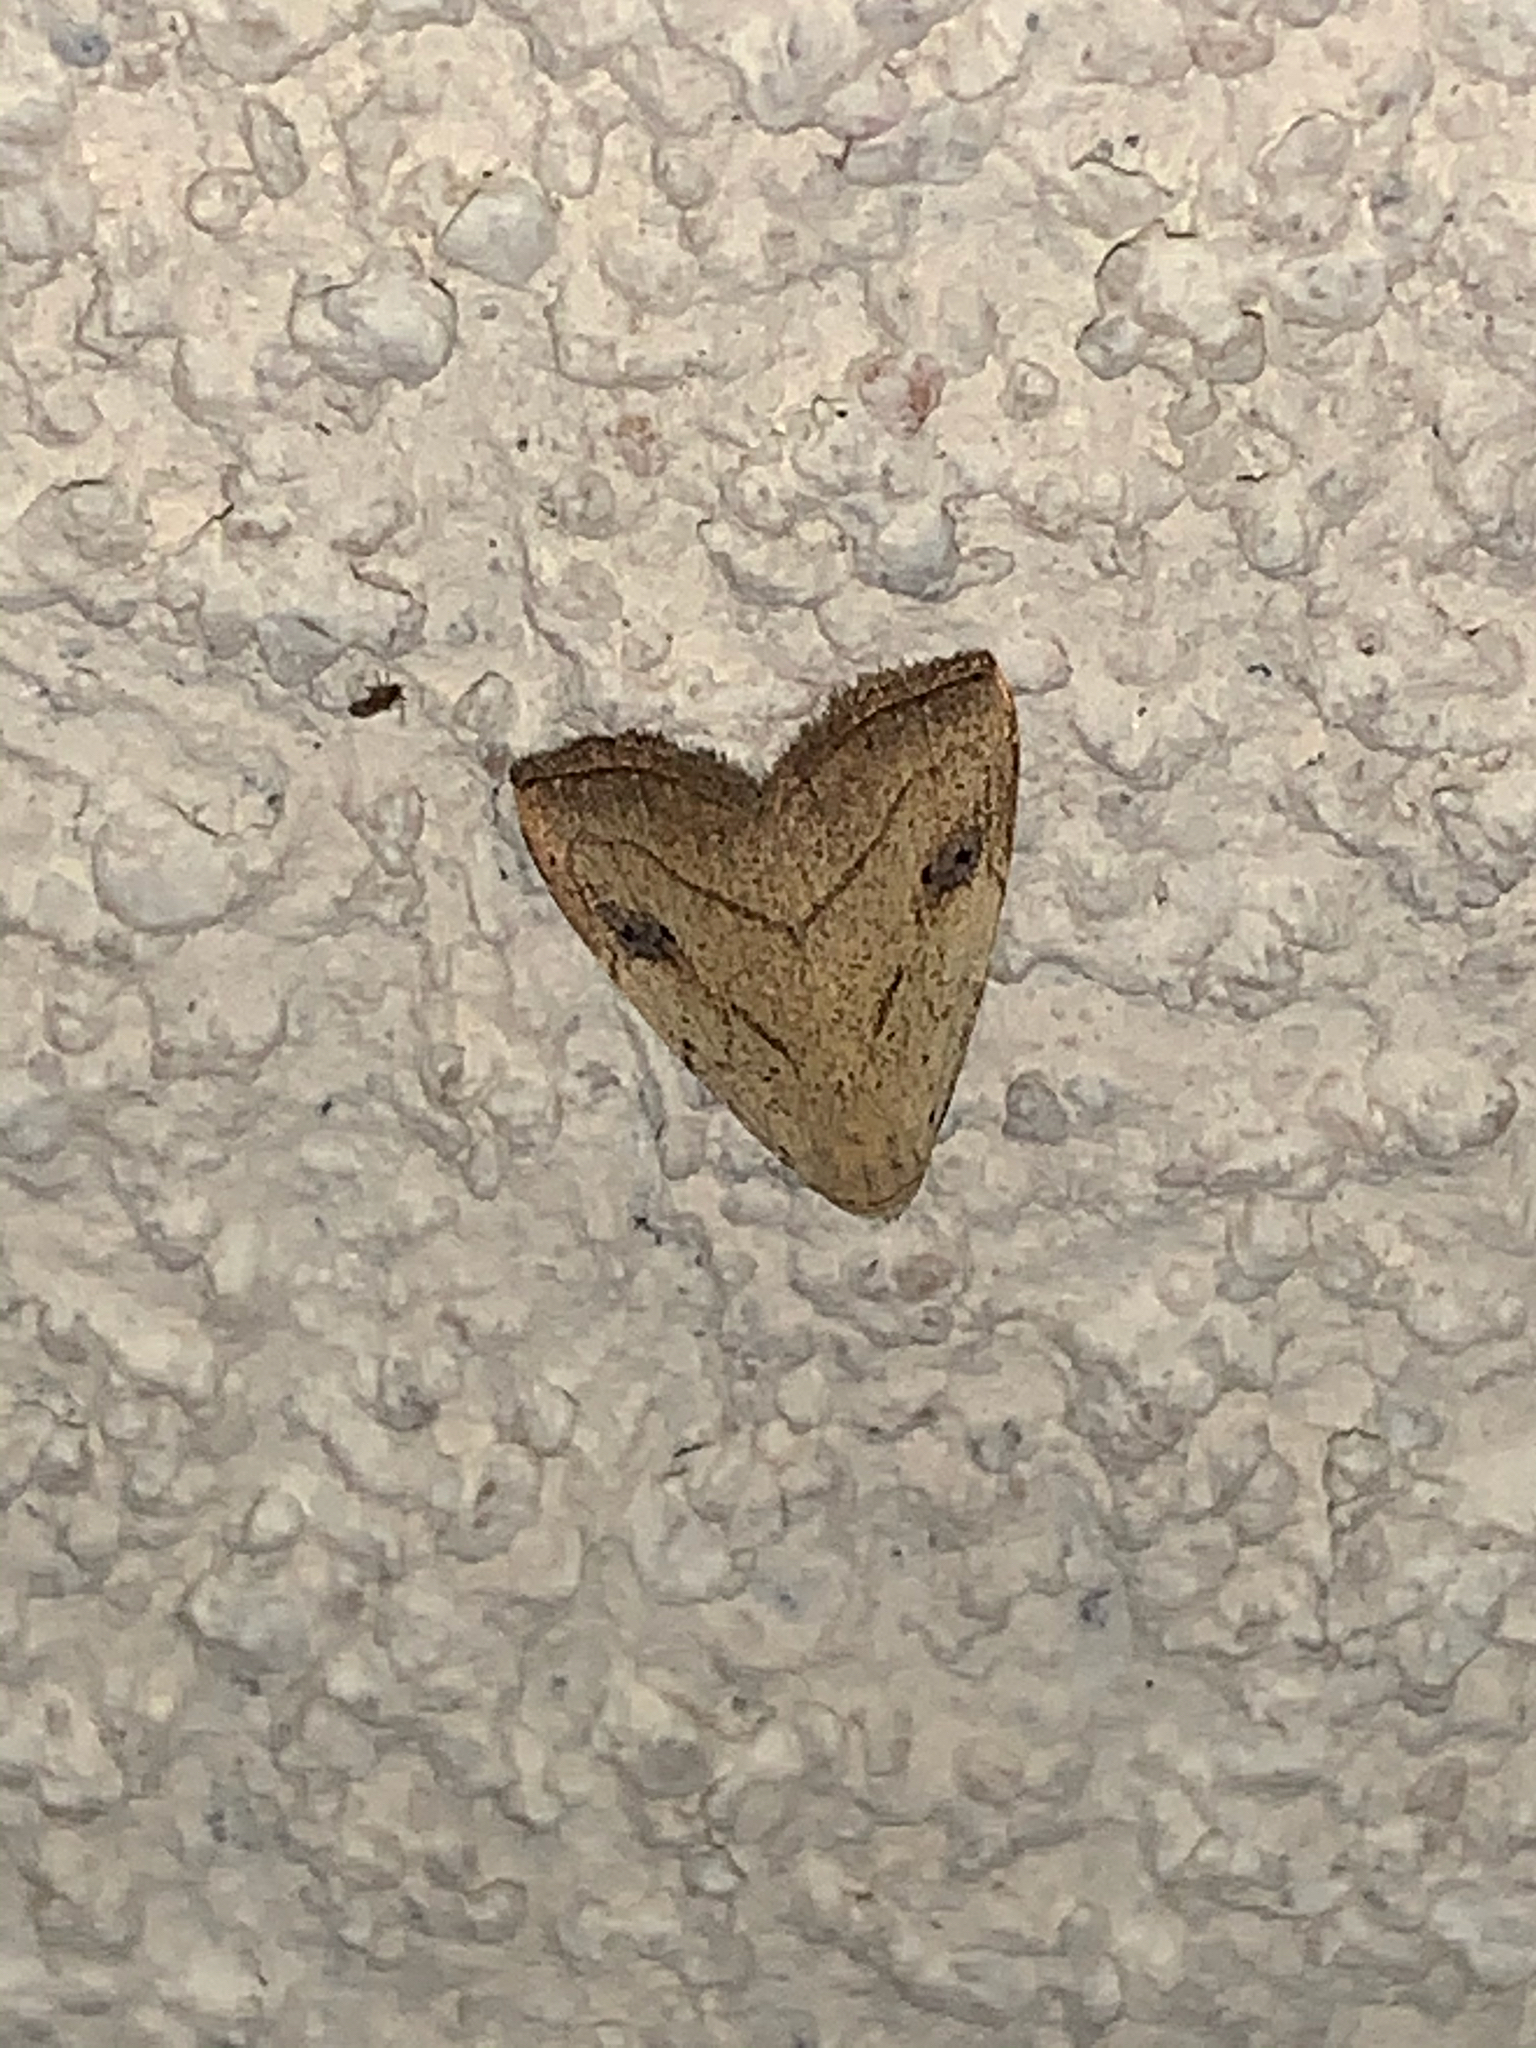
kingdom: Animalia
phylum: Arthropoda
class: Insecta
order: Lepidoptera
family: Erebidae
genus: Rivula
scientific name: Rivula propinqualis
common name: Spotted grass moth
